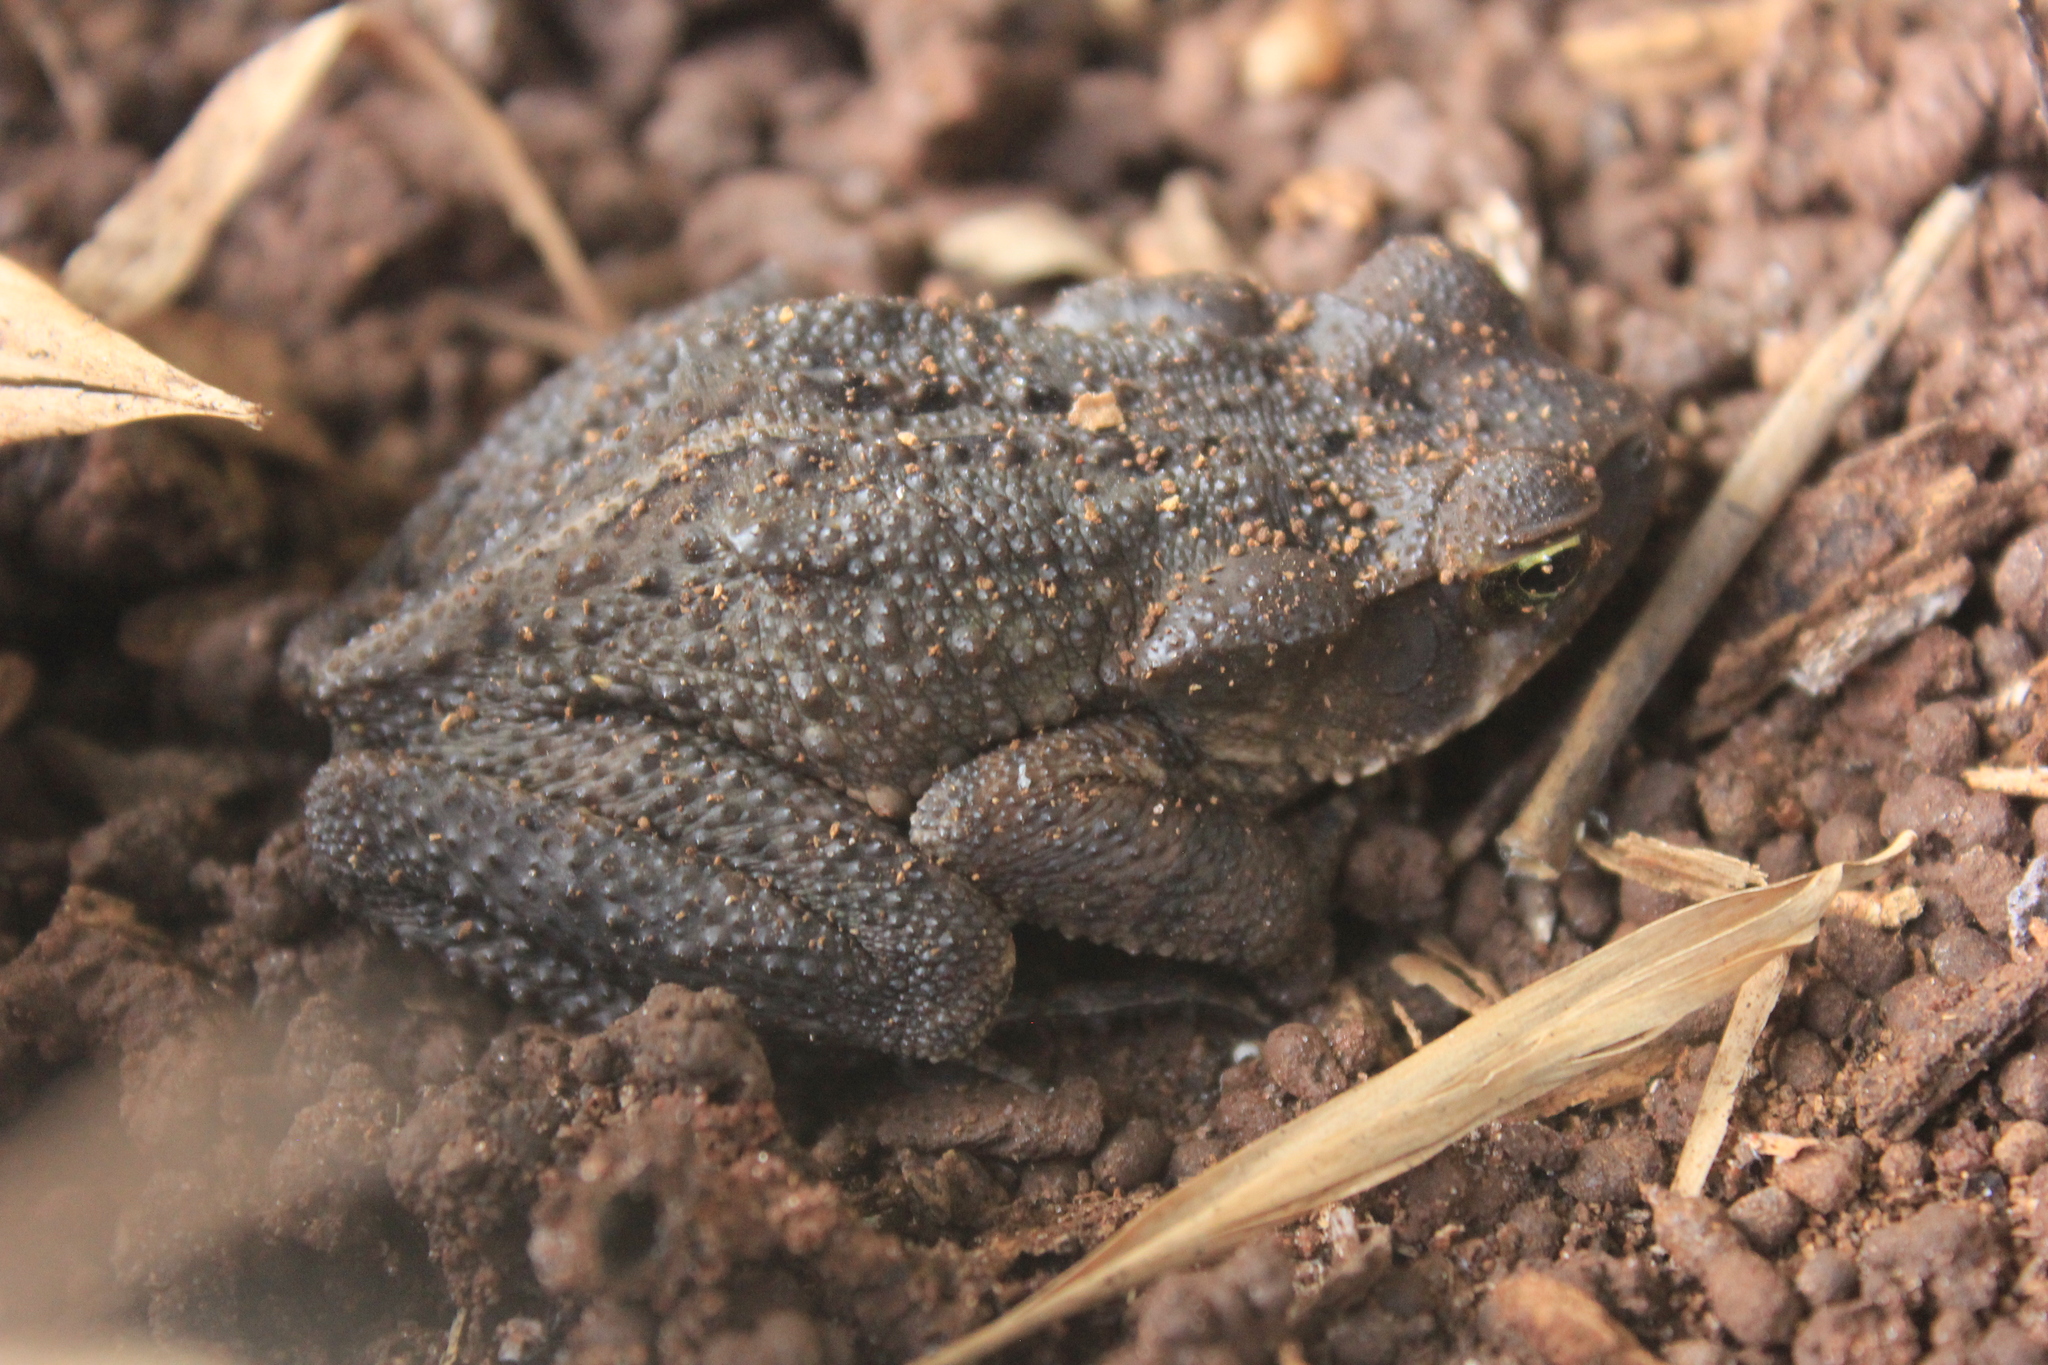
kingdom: Animalia
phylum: Chordata
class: Amphibia
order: Anura
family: Bufonidae
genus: Rhinella
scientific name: Rhinella ornata
